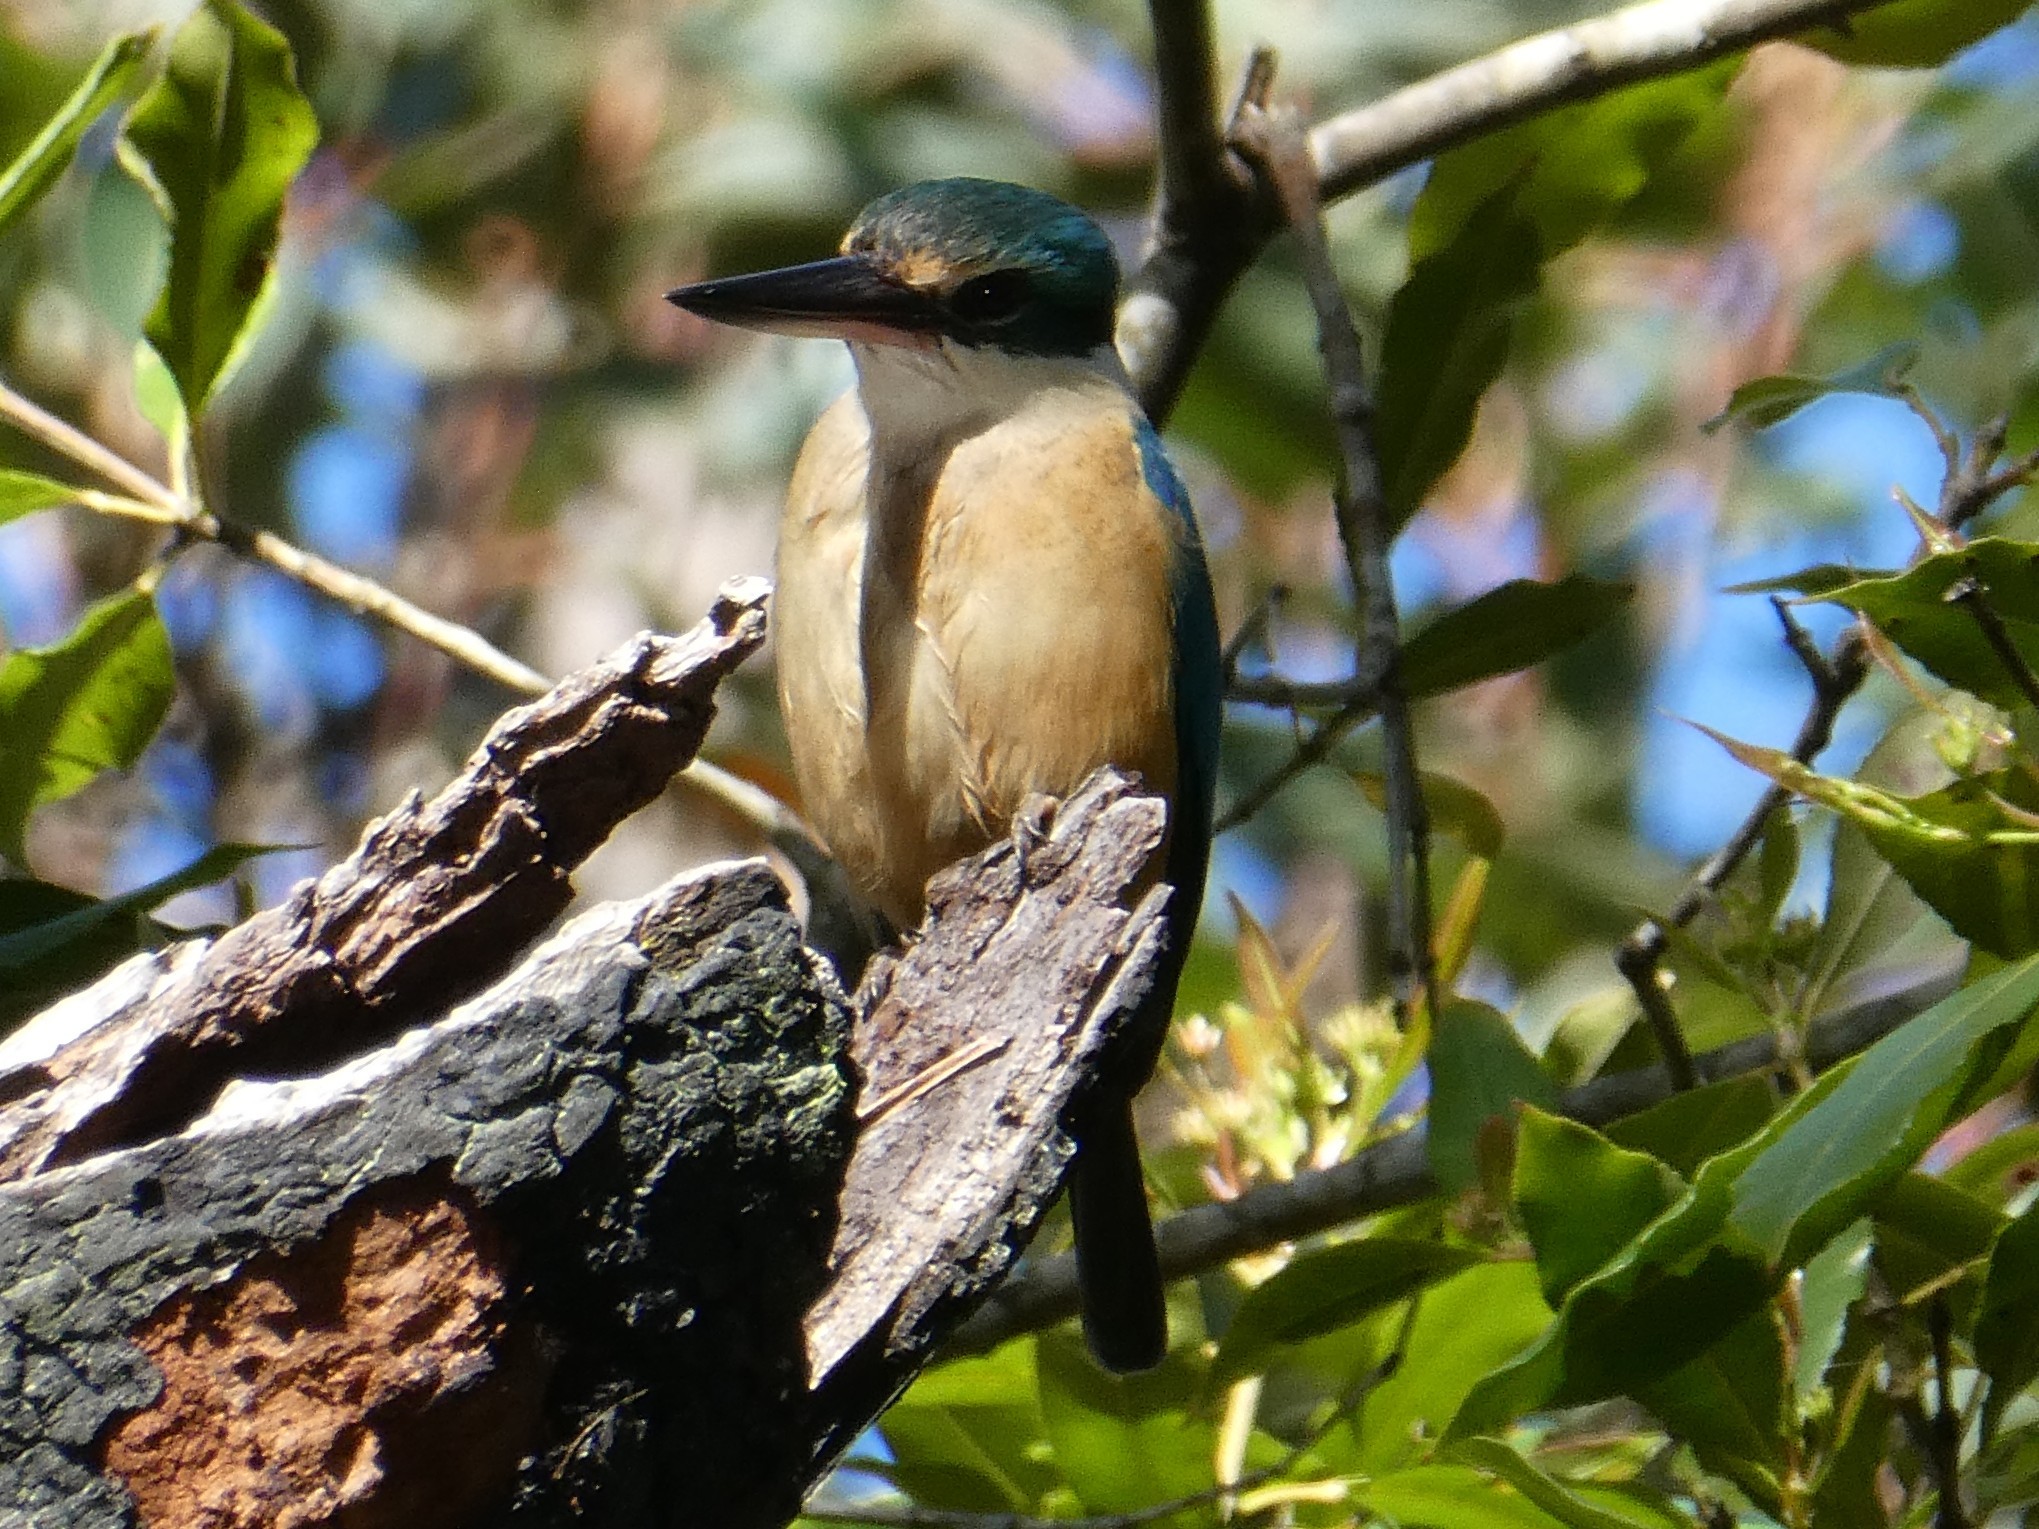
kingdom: Animalia
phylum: Chordata
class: Aves
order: Coraciiformes
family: Alcedinidae
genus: Todiramphus
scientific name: Todiramphus sanctus
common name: Sacred kingfisher
